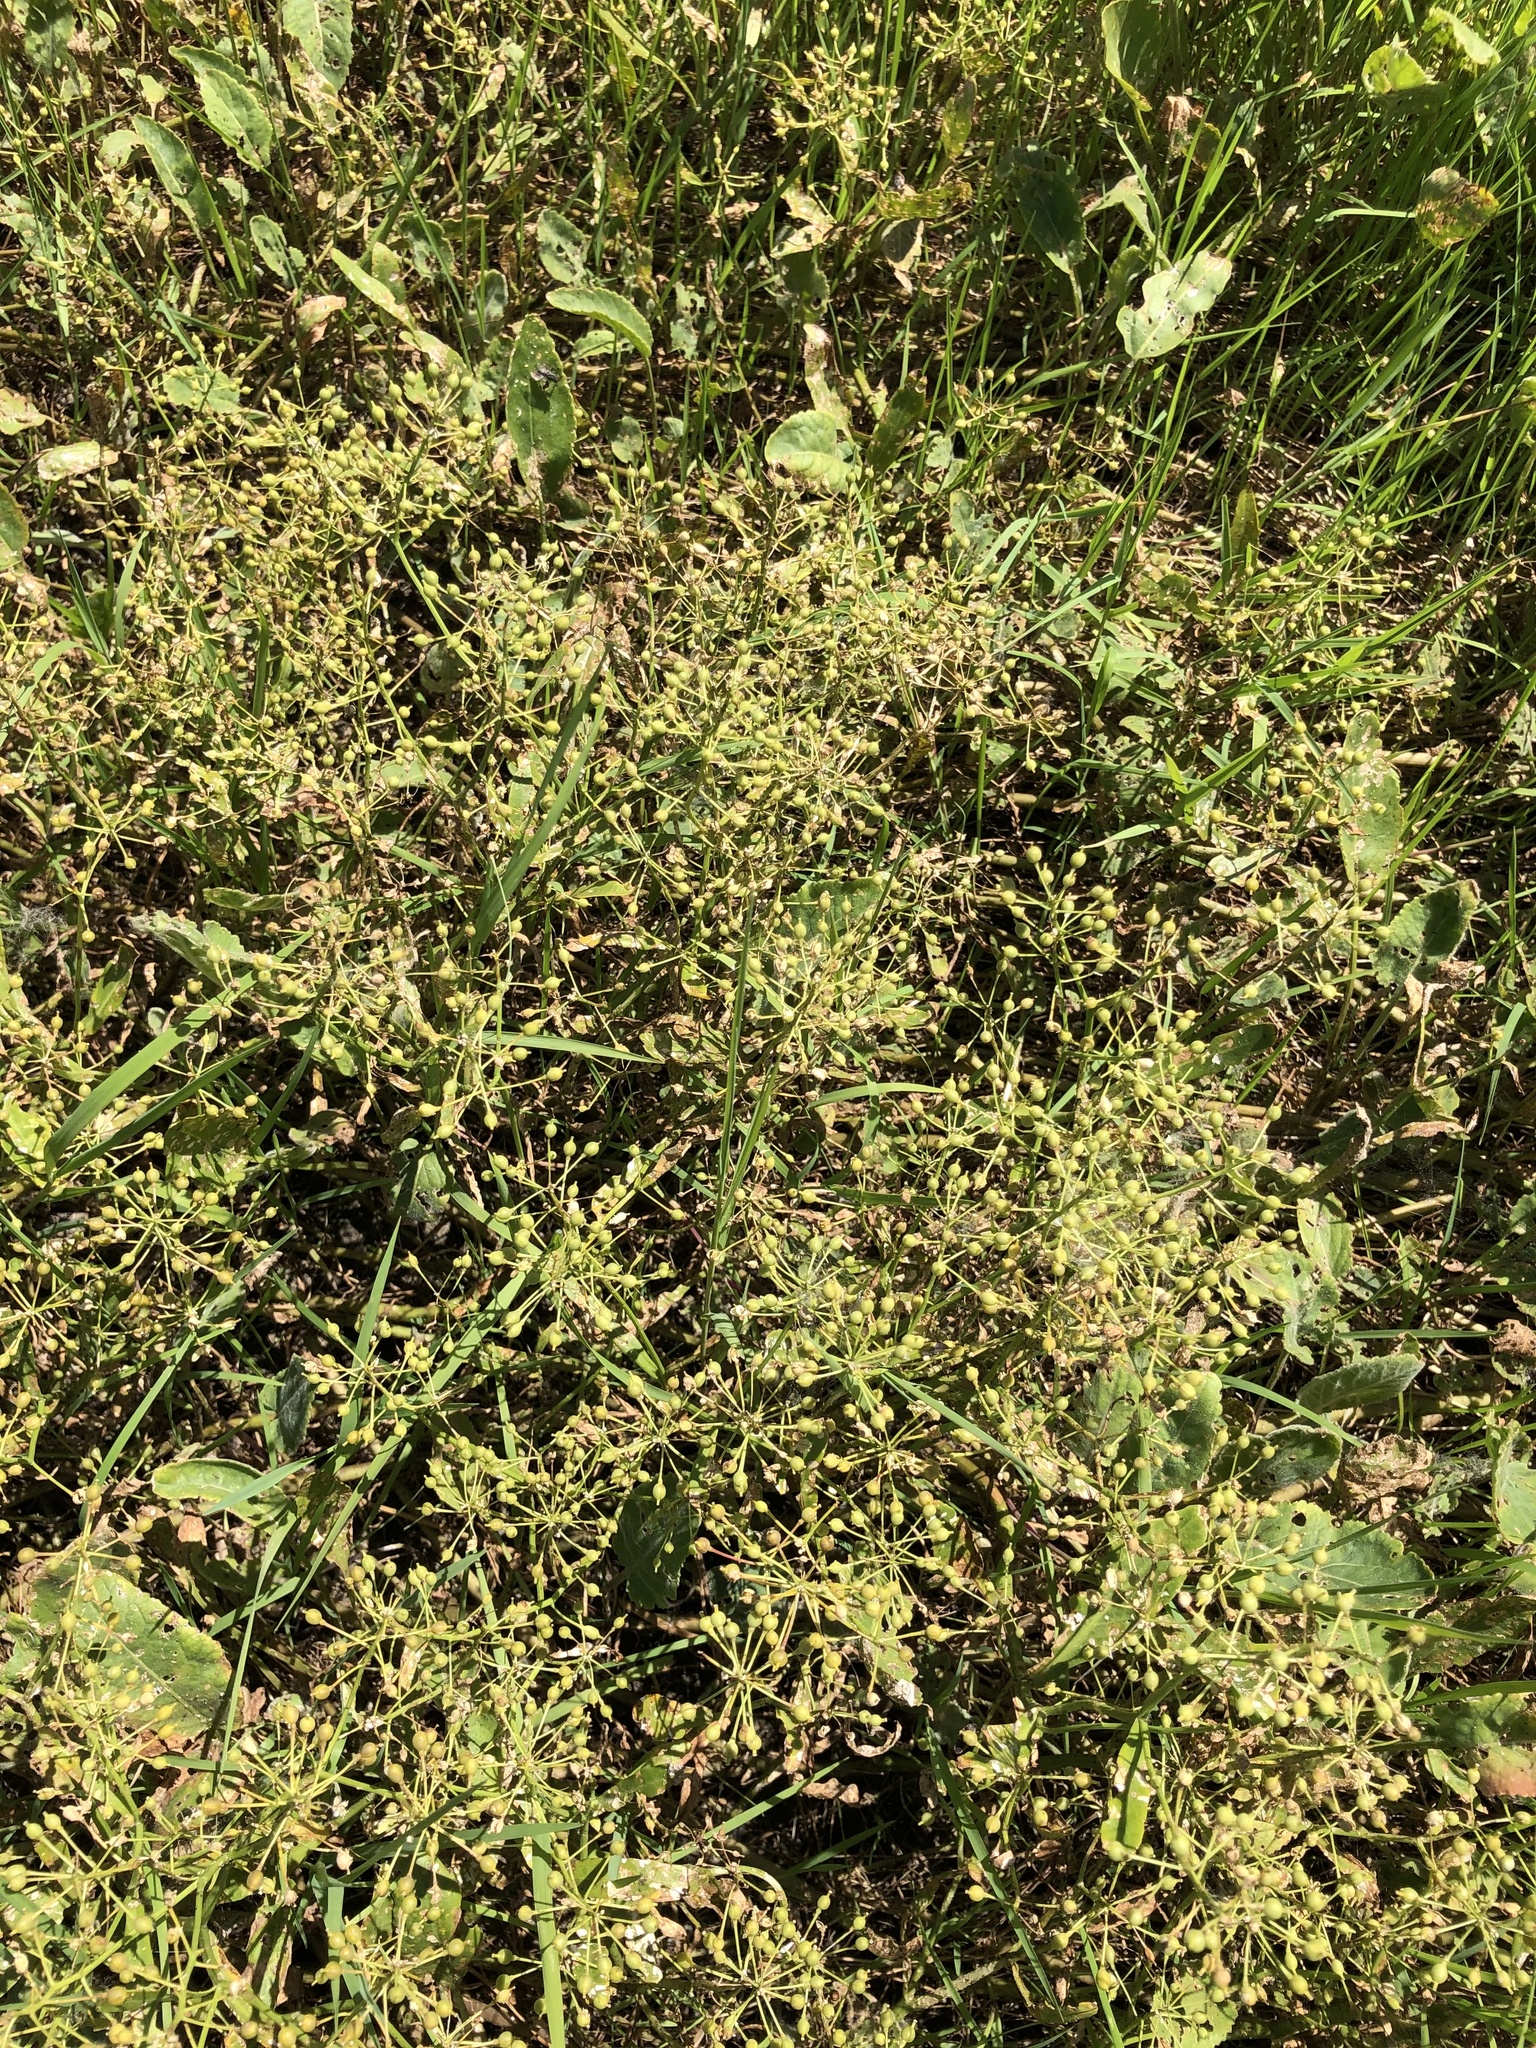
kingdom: Plantae
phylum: Tracheophyta
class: Magnoliopsida
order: Brassicales
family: Brassicaceae
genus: Rorippa
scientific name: Rorippa amphibia
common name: Great yellow-cress
